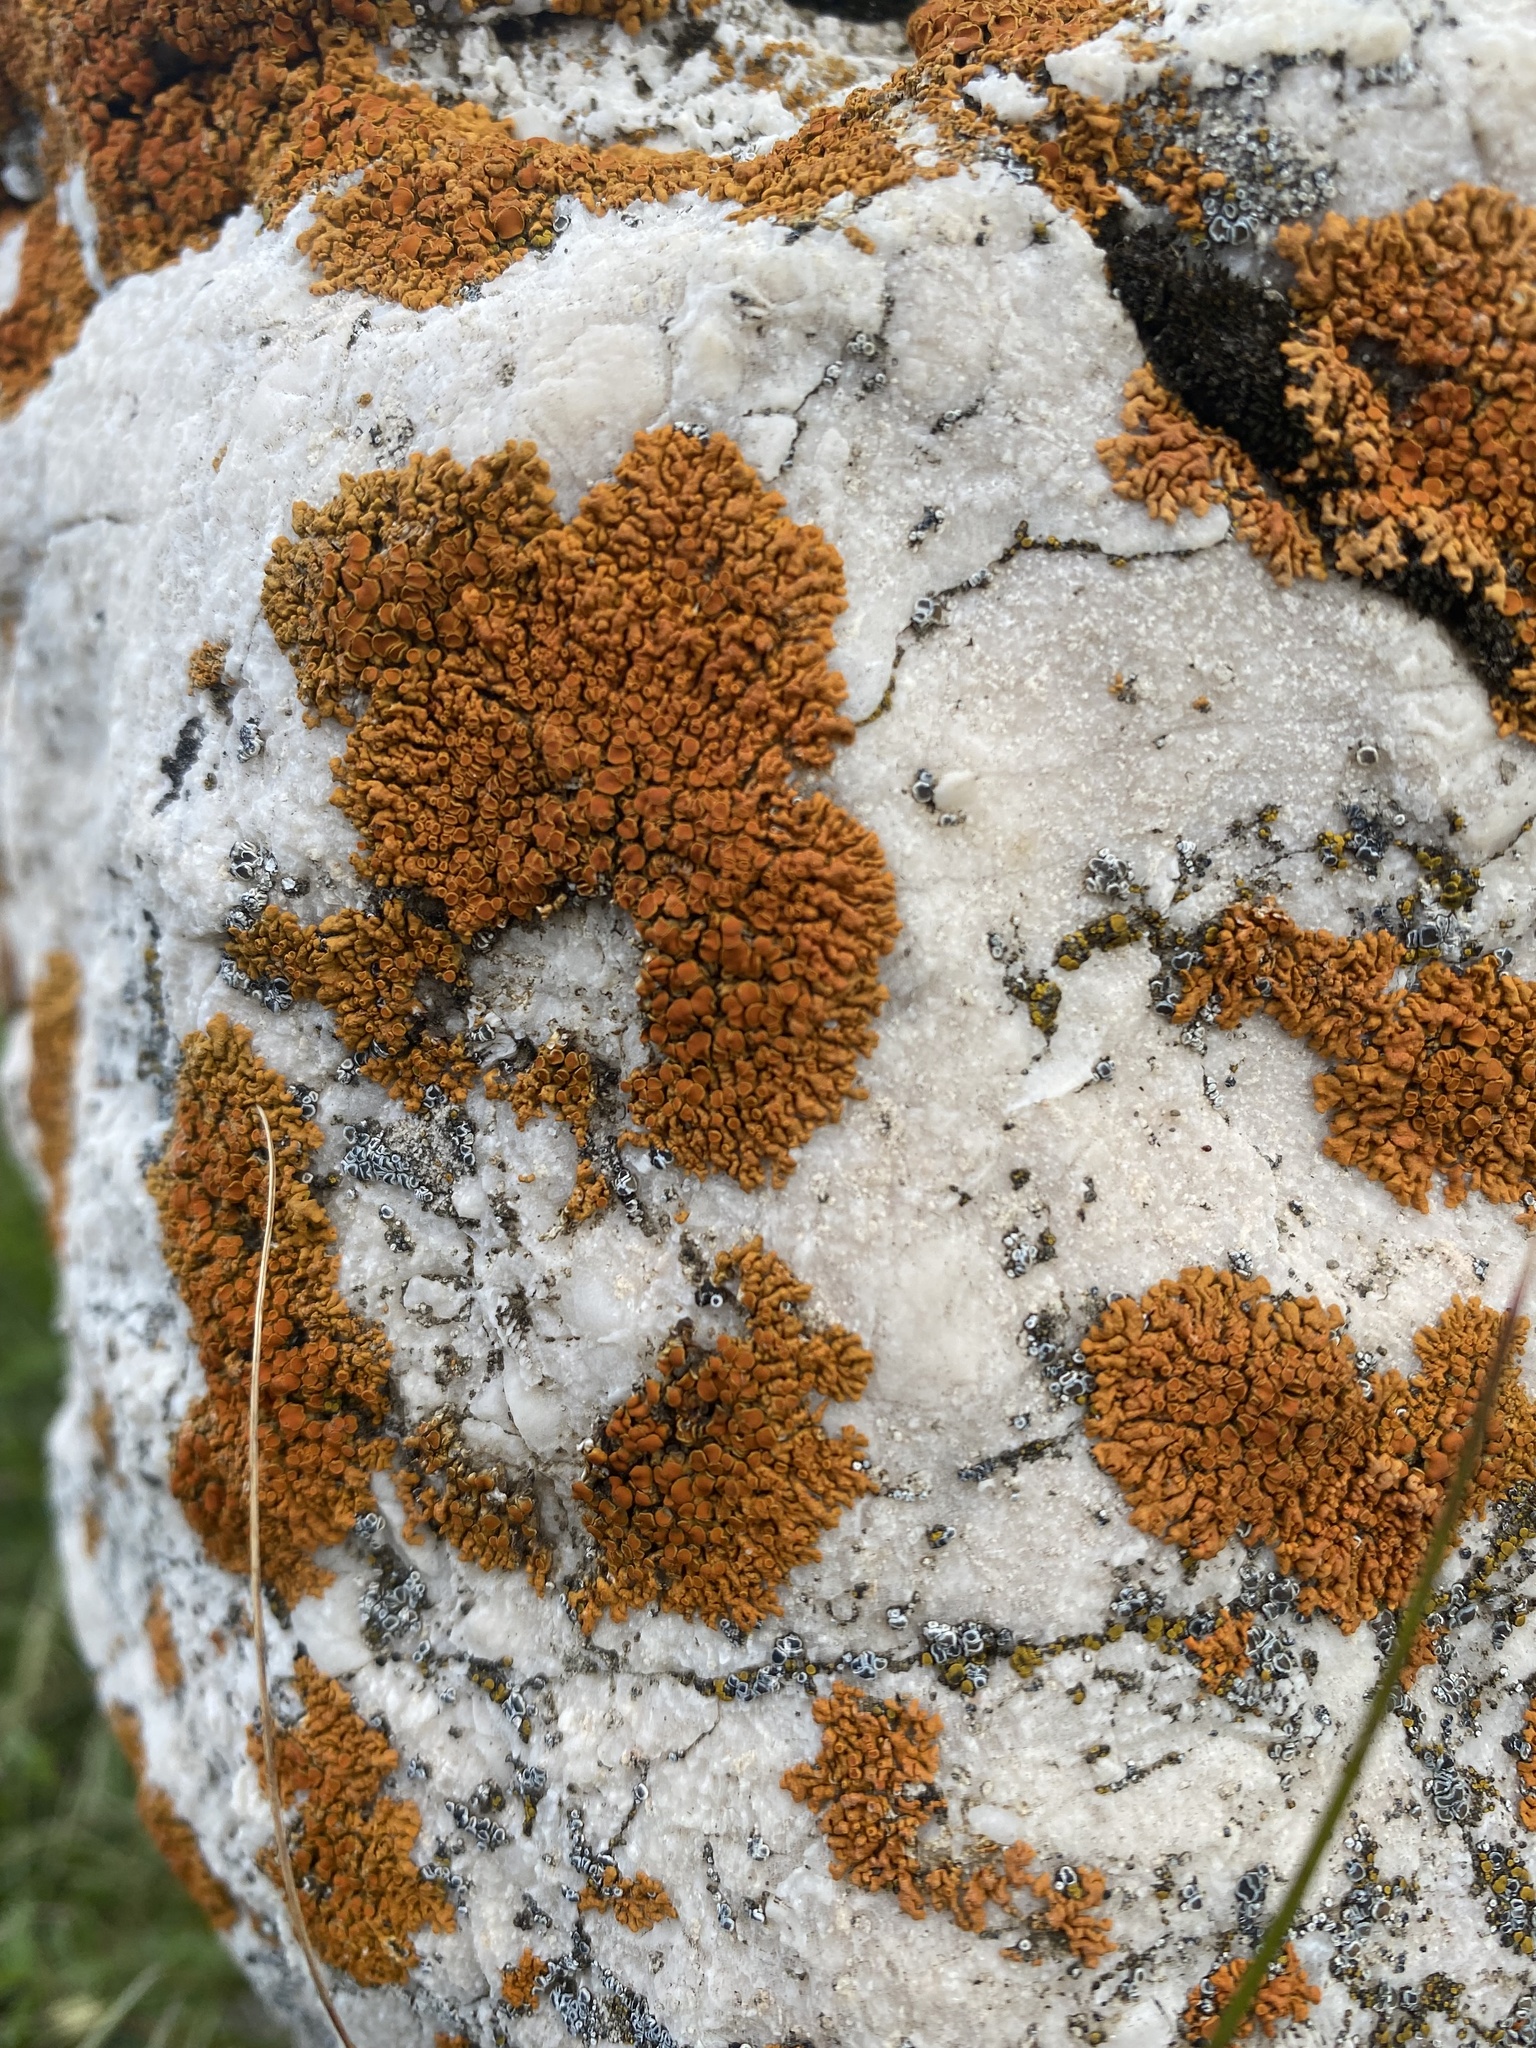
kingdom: Fungi
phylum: Ascomycota
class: Lecanoromycetes
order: Teloschistales
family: Teloschistaceae
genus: Xanthoria
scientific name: Xanthoria elegans
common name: Elegant sunburst lichen
